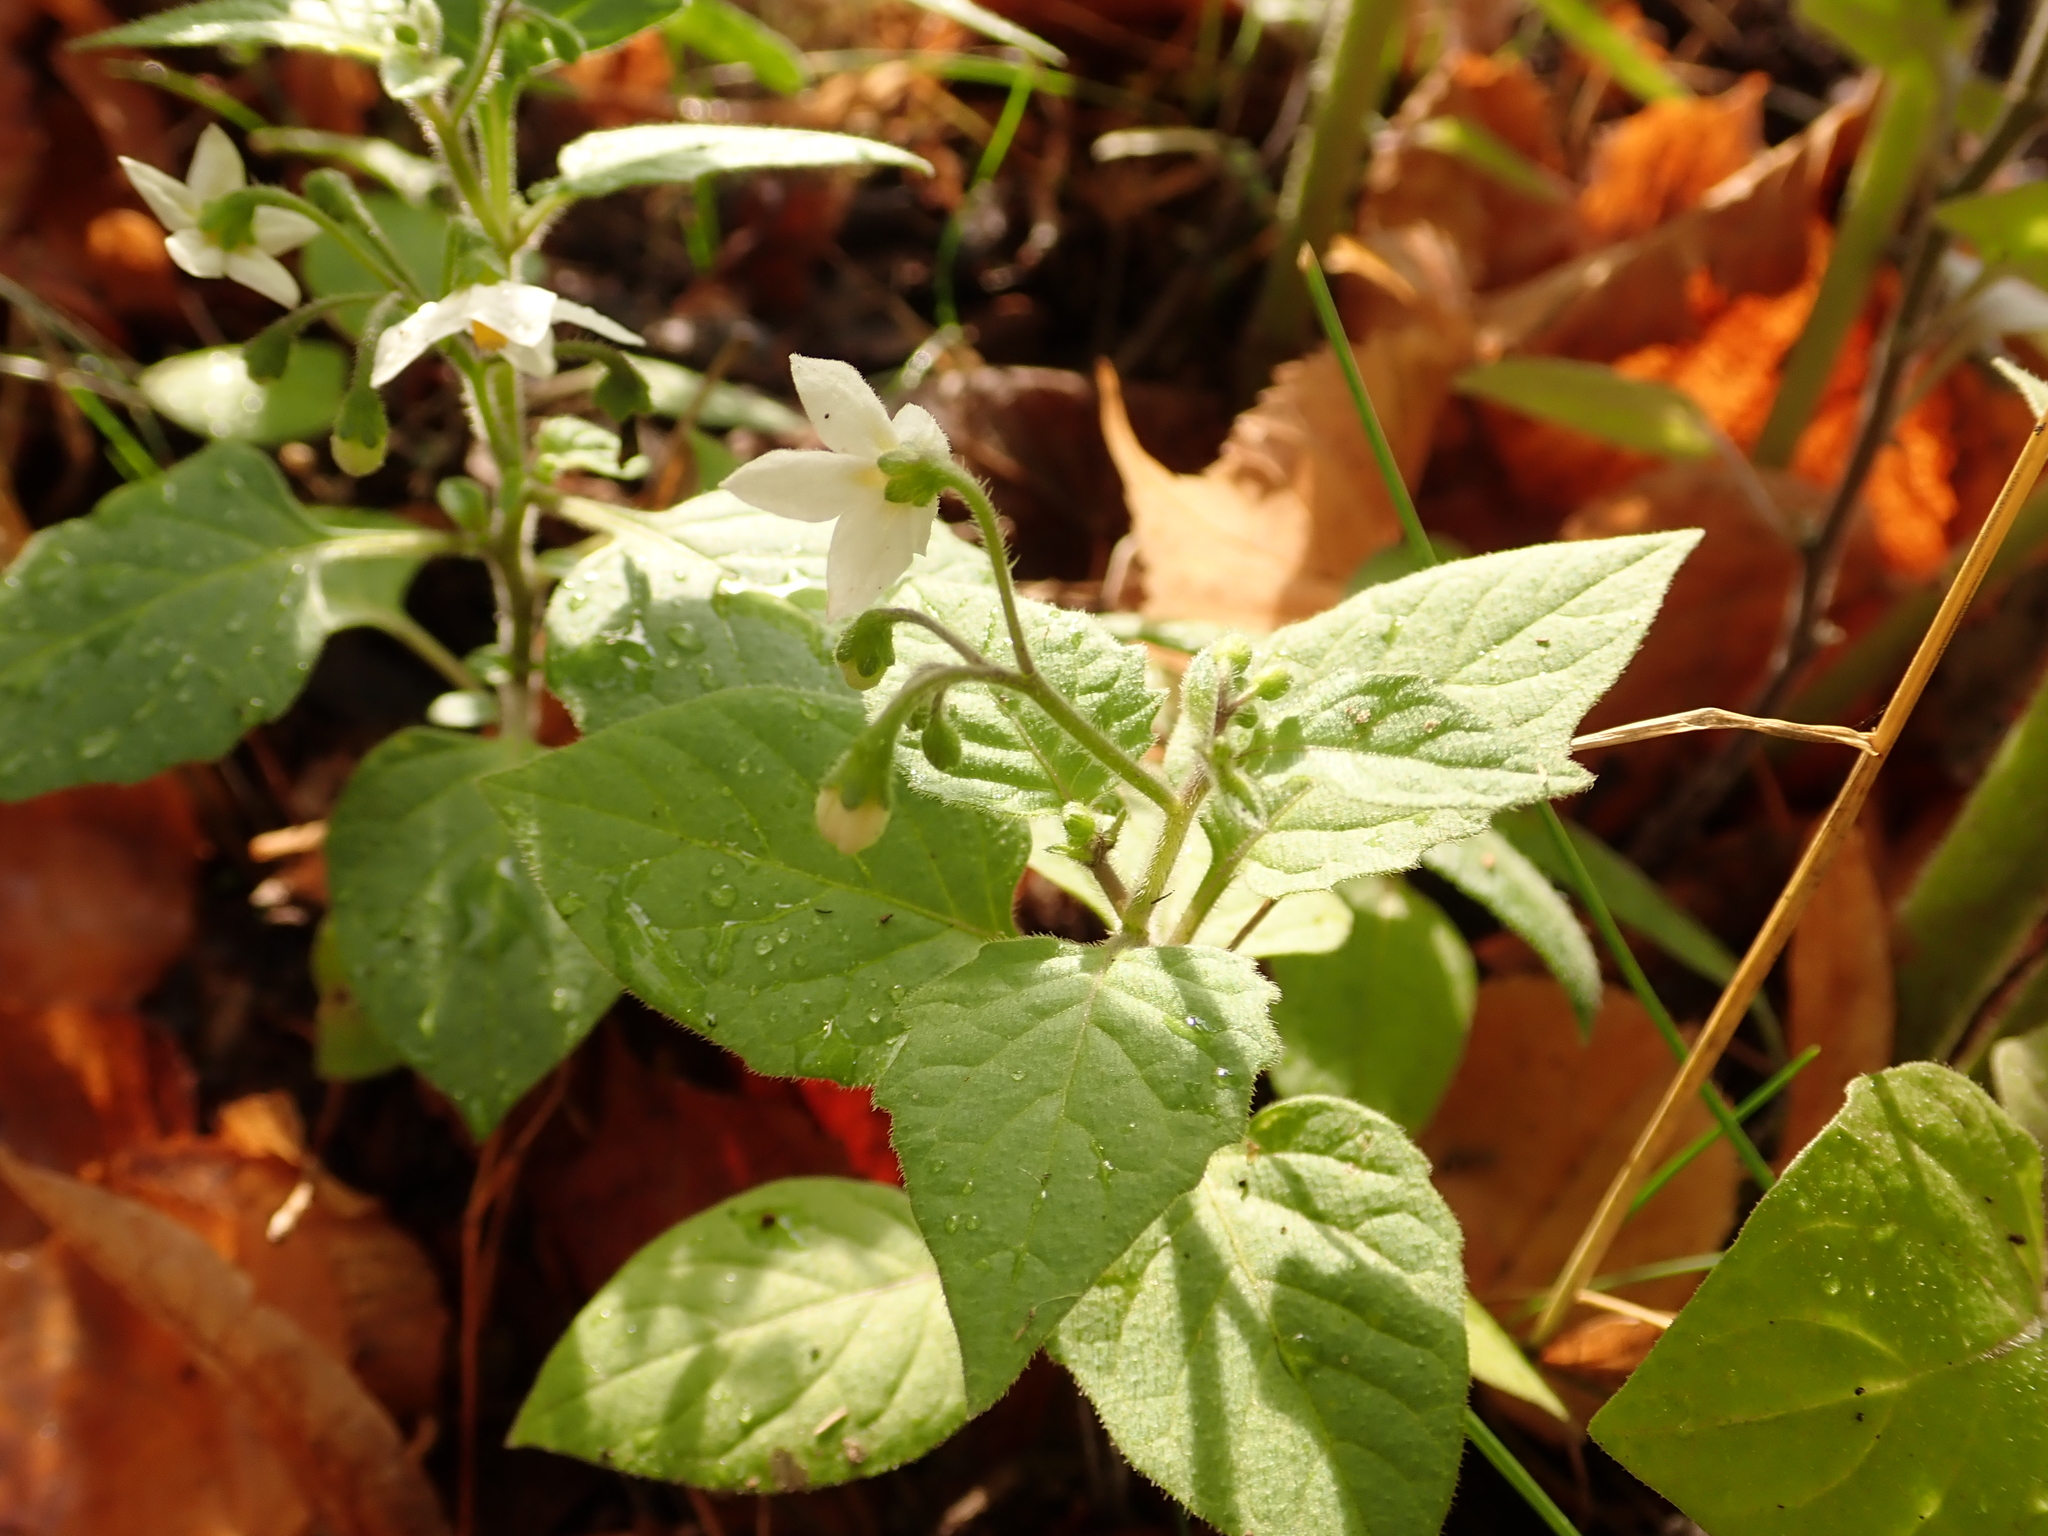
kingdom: Plantae
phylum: Tracheophyta
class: Magnoliopsida
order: Solanales
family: Solanaceae
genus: Solanum
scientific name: Solanum nigrum
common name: Black nightshade
